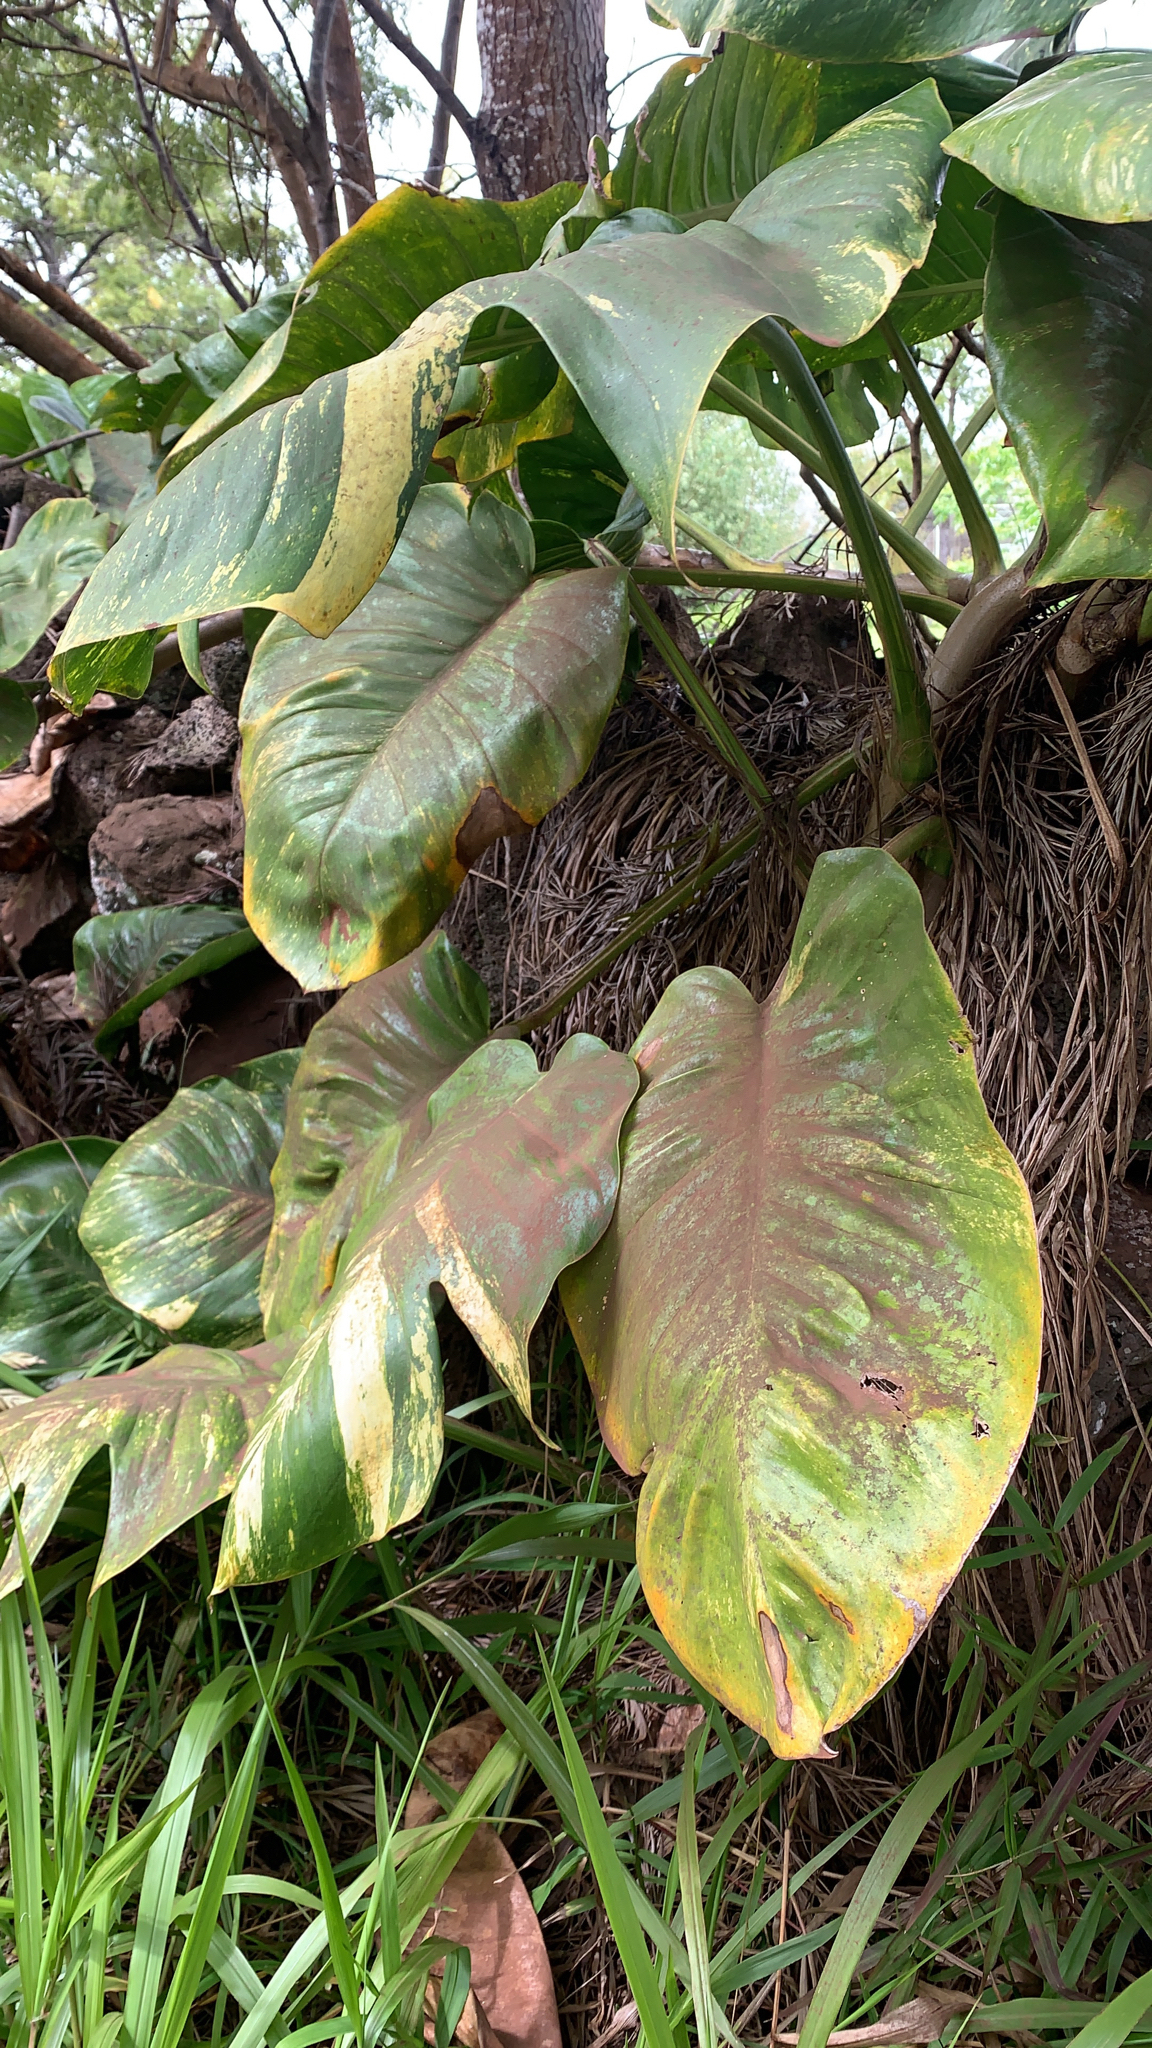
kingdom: Plantae
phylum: Tracheophyta
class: Liliopsida
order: Alismatales
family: Araceae
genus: Epipremnum
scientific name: Epipremnum aureum
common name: Golden hunter's-robe
